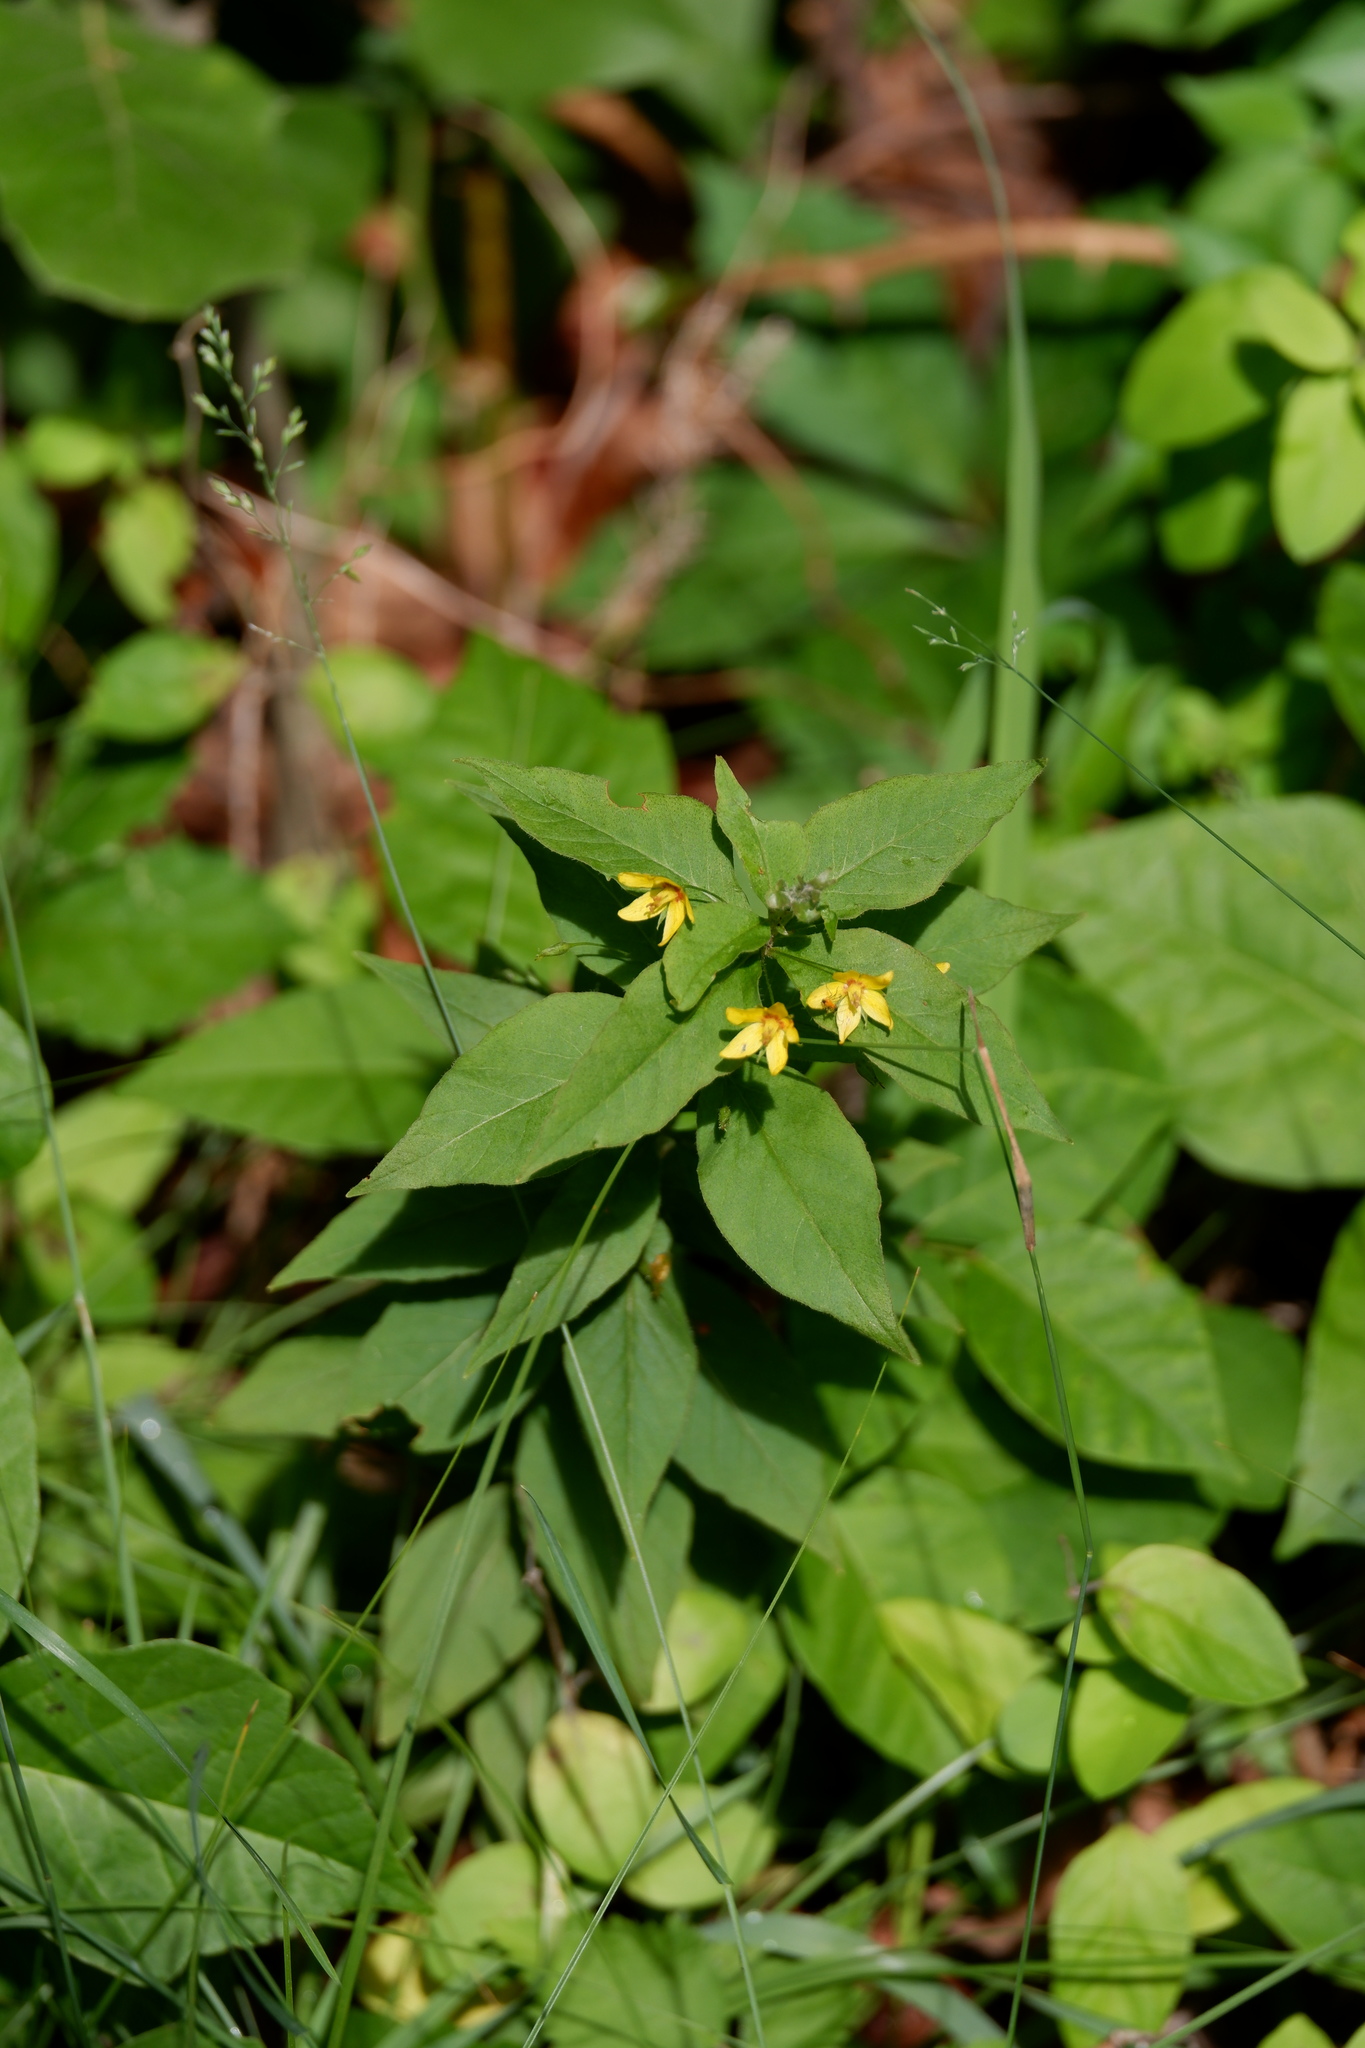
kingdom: Plantae
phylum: Tracheophyta
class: Magnoliopsida
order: Ericales
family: Primulaceae
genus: Lysimachia
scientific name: Lysimachia quadrifolia
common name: Whorled loosestrife
